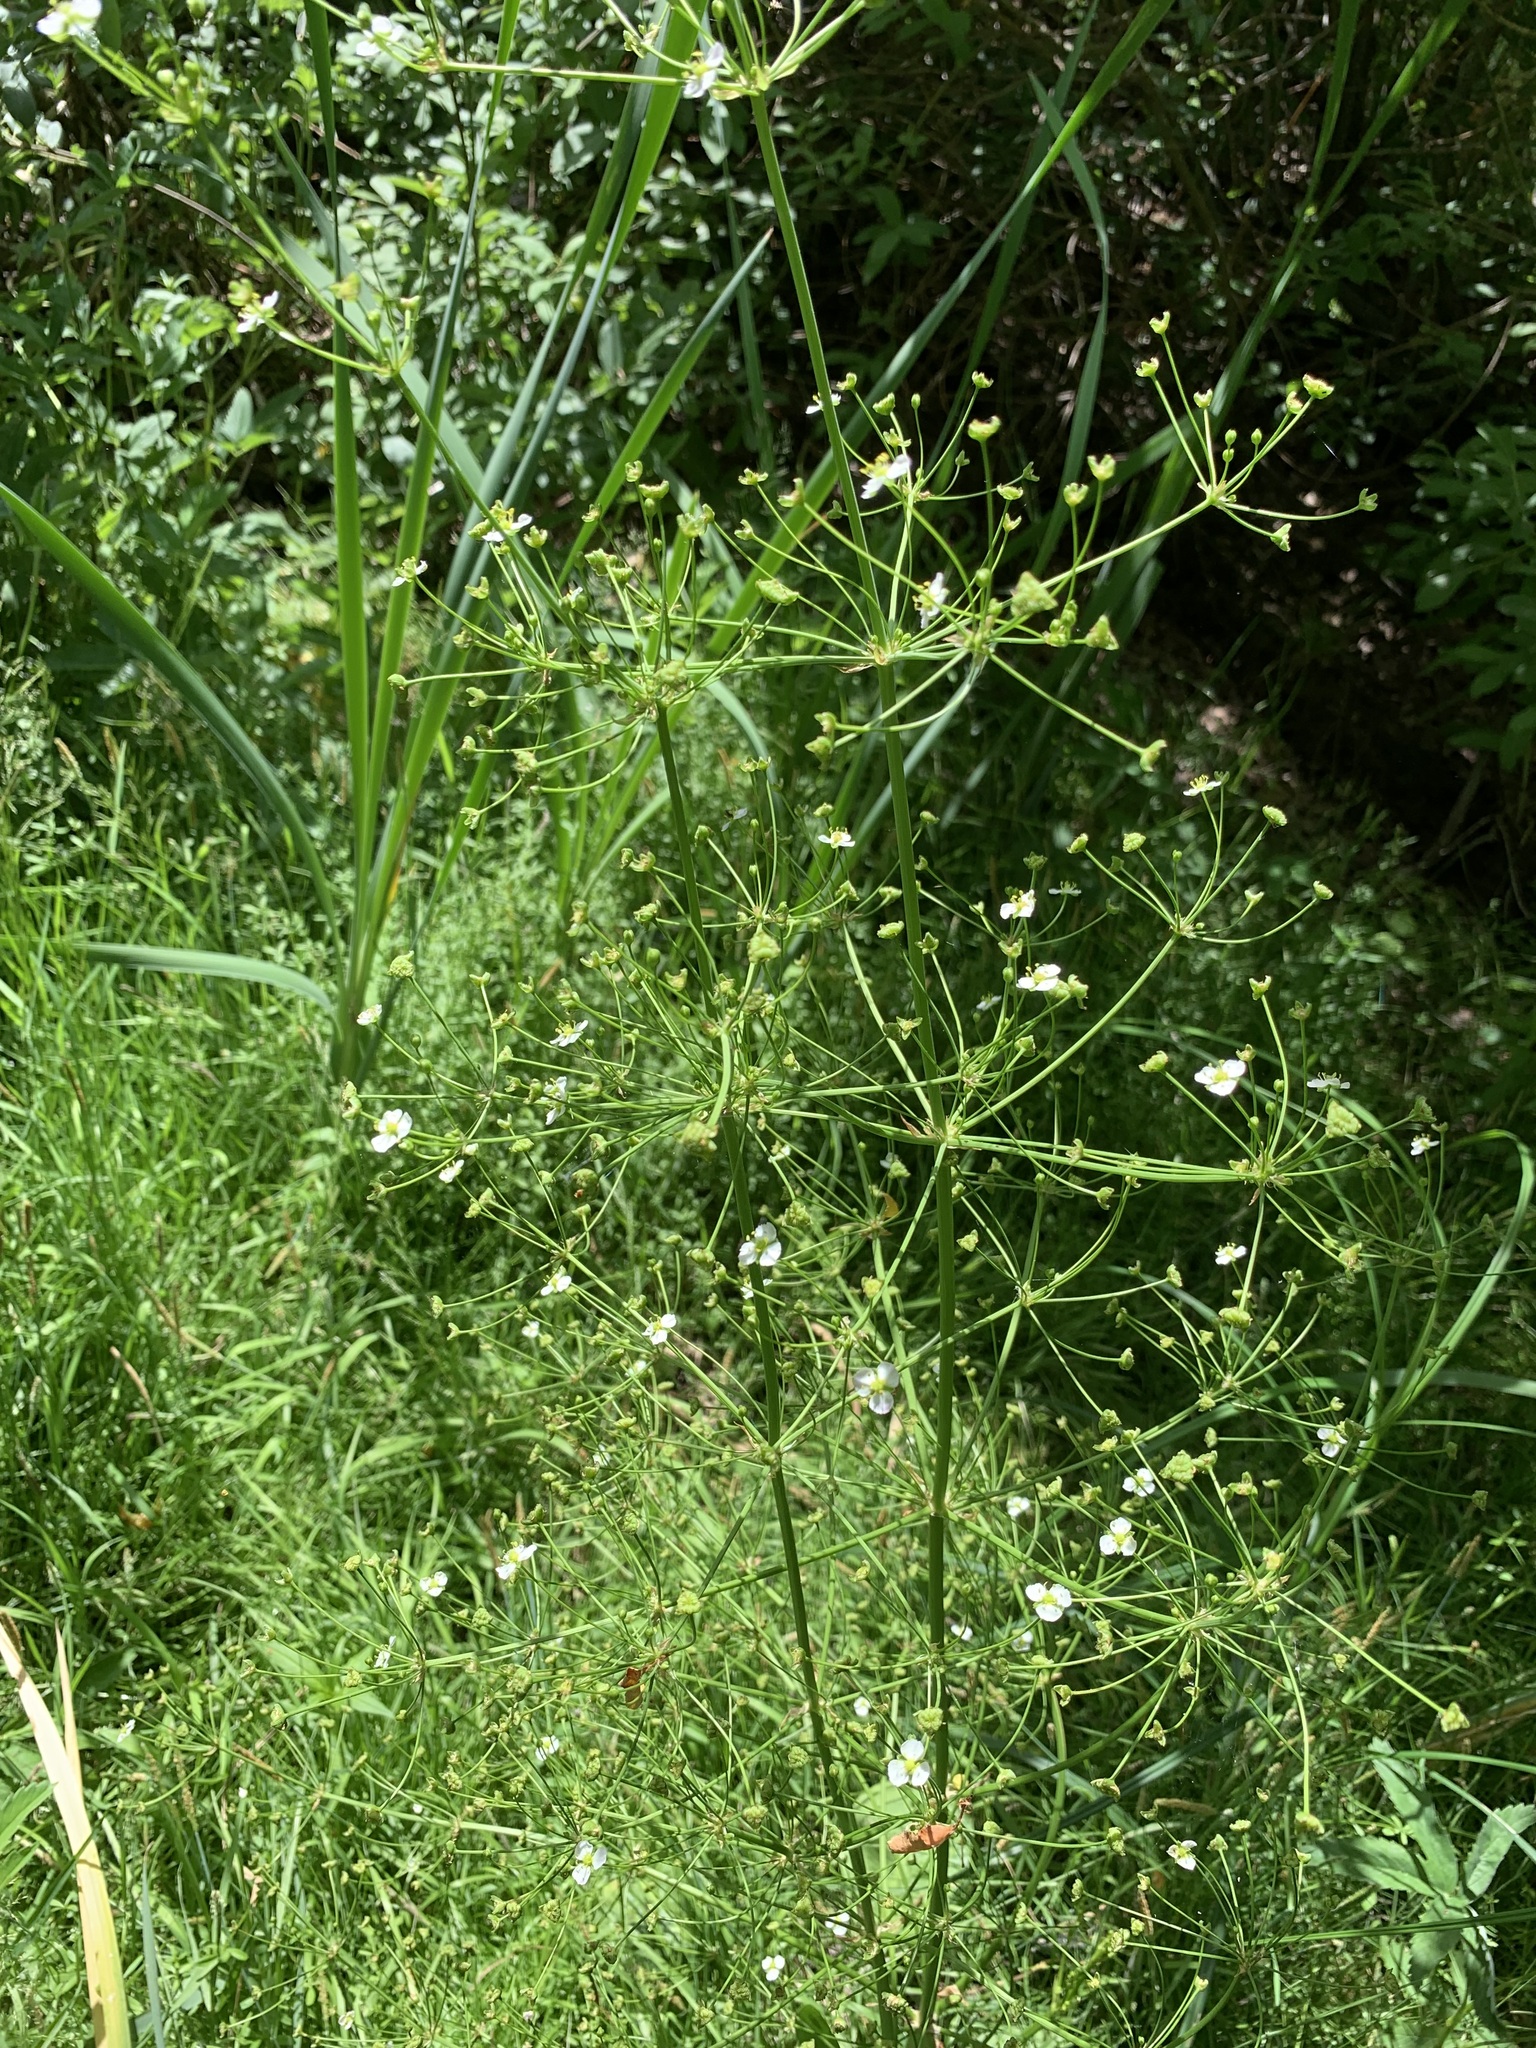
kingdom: Plantae
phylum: Tracheophyta
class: Liliopsida
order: Alismatales
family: Alismataceae
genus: Alisma
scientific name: Alisma plantago-aquatica
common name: Water-plantain
